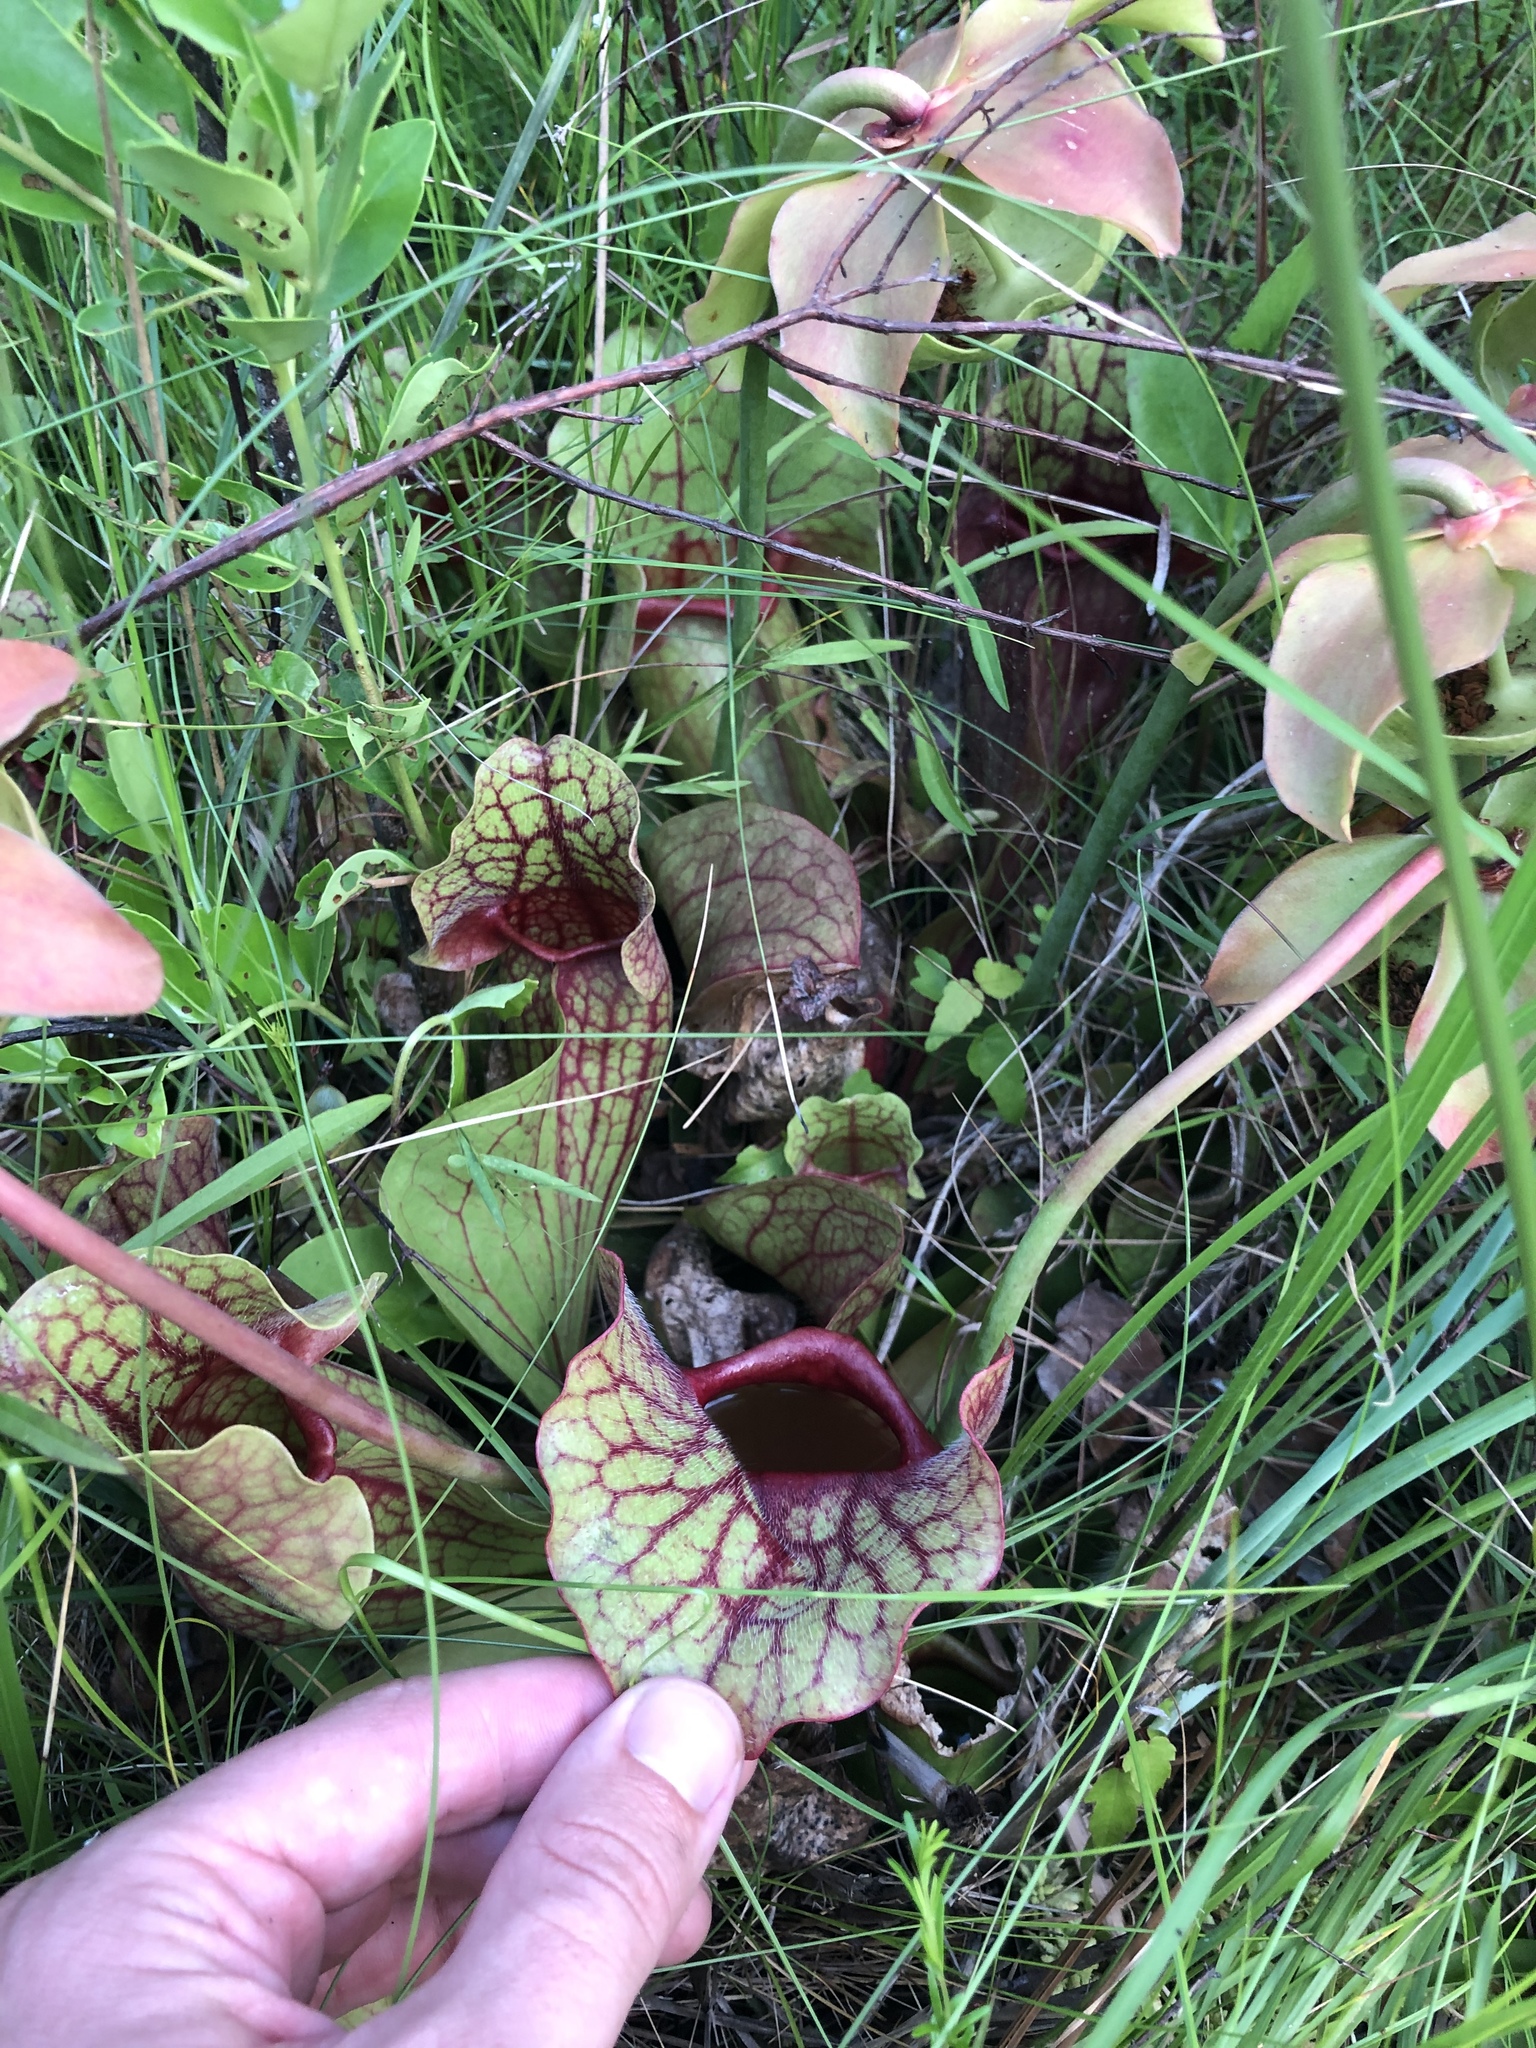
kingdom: Plantae
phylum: Tracheophyta
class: Magnoliopsida
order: Ericales
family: Sarraceniaceae
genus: Sarracenia
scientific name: Sarracenia rosea
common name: Pink pitcherplant
